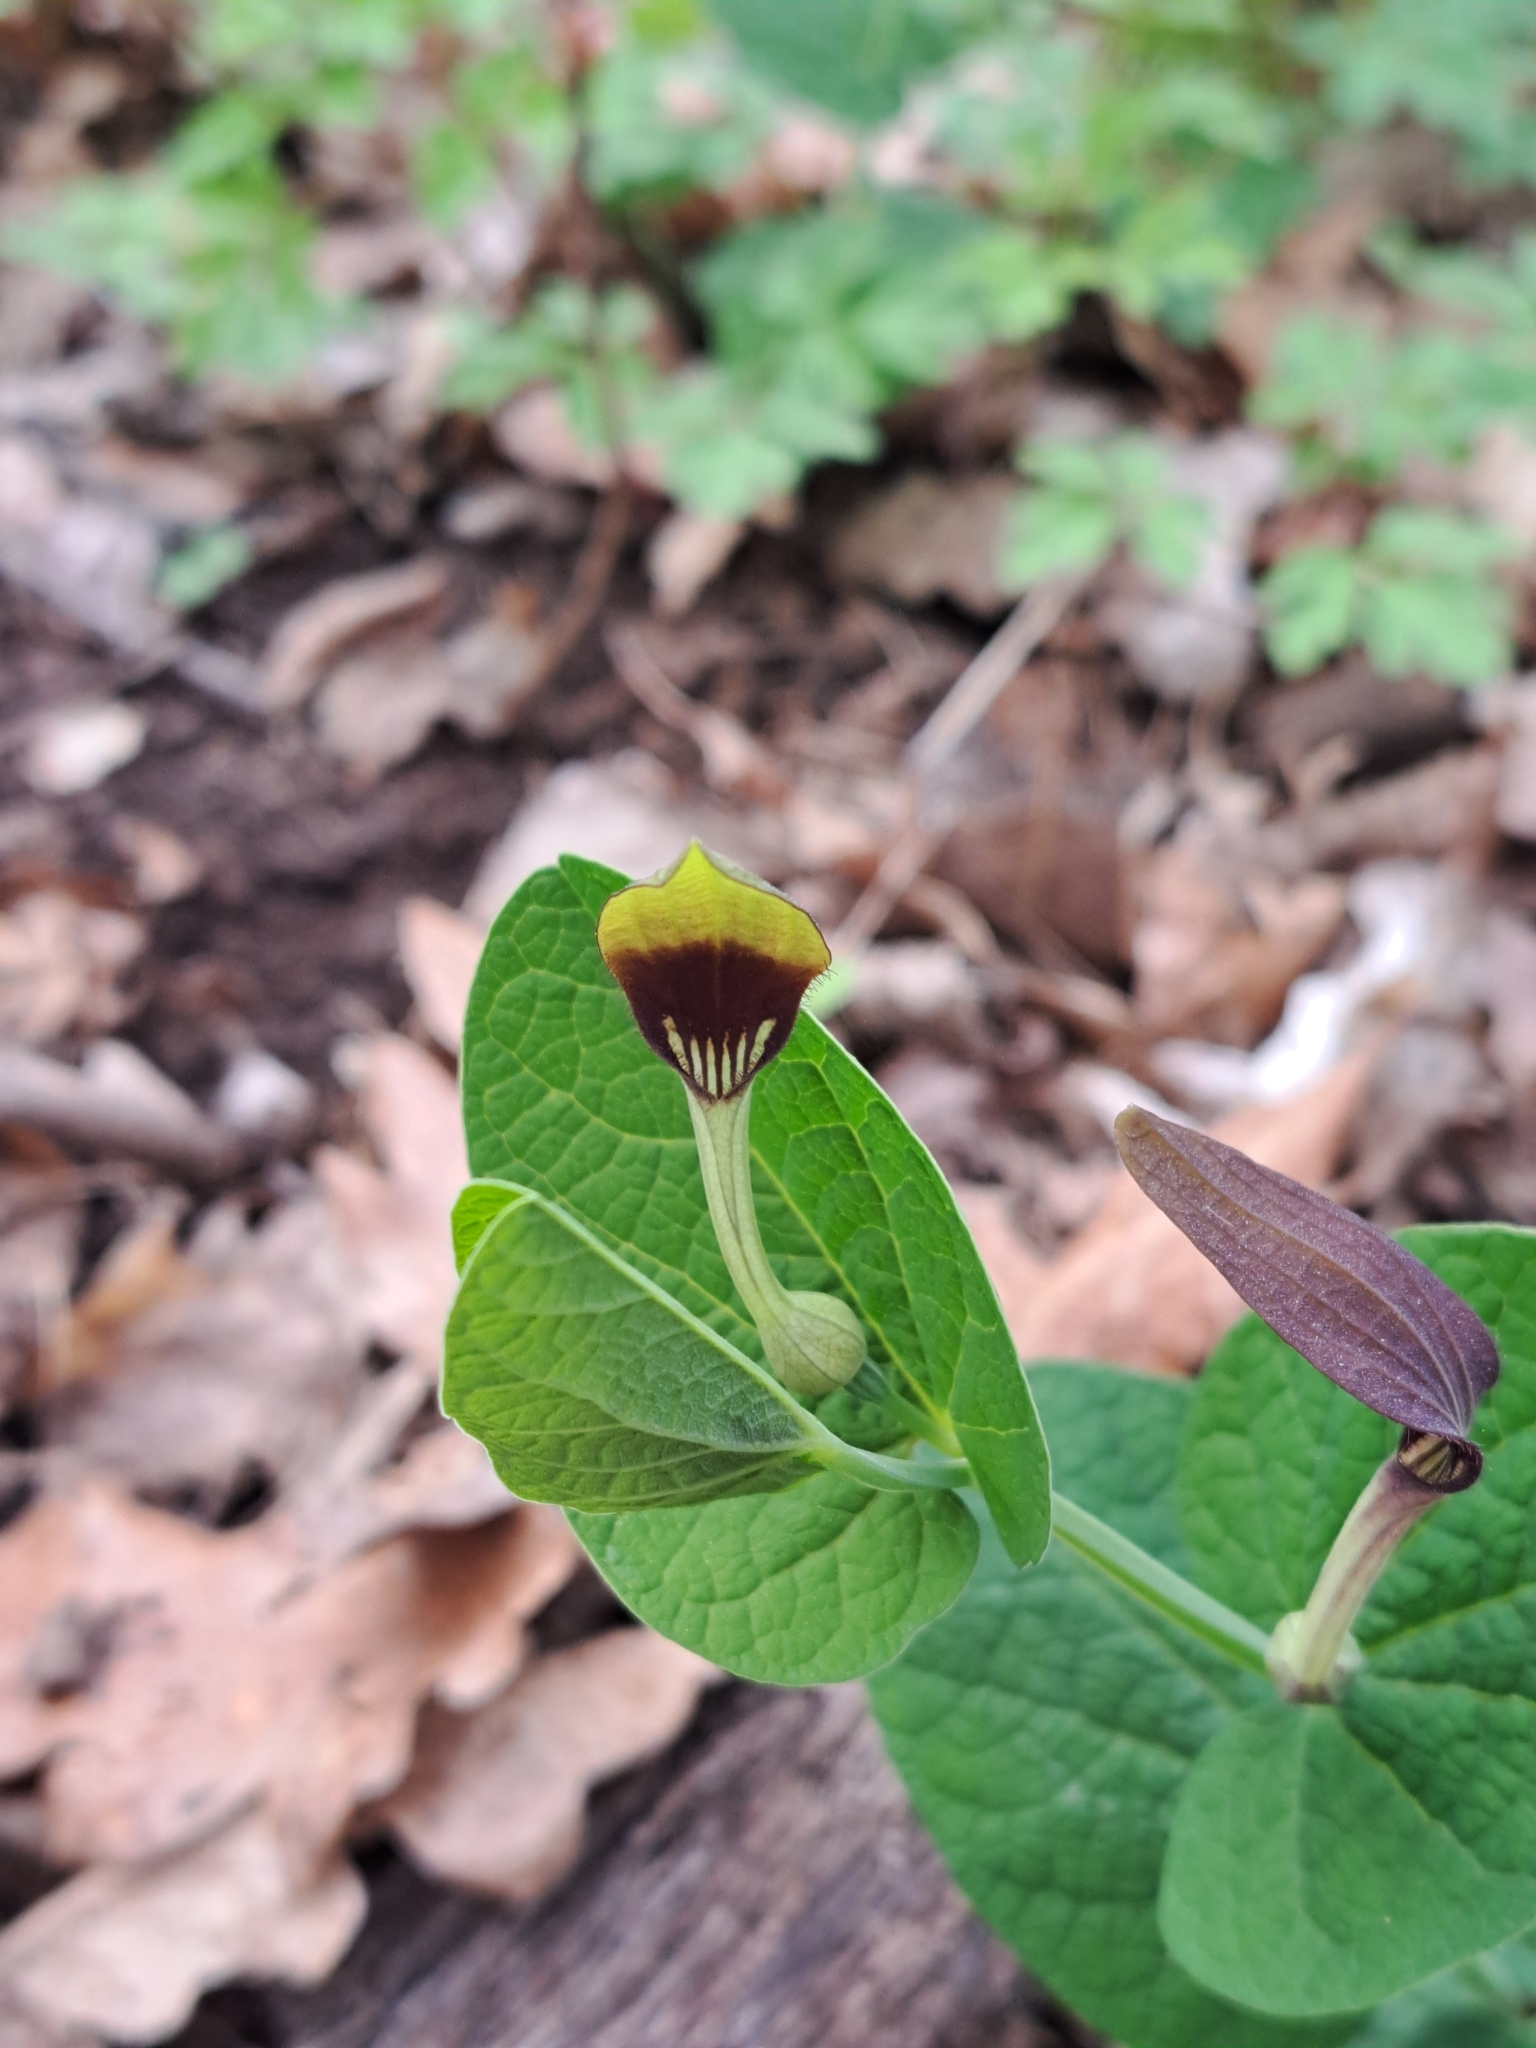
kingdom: Plantae
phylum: Tracheophyta
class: Magnoliopsida
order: Piperales
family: Aristolochiaceae
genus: Aristolochia
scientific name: Aristolochia rotunda
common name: Smearwort
